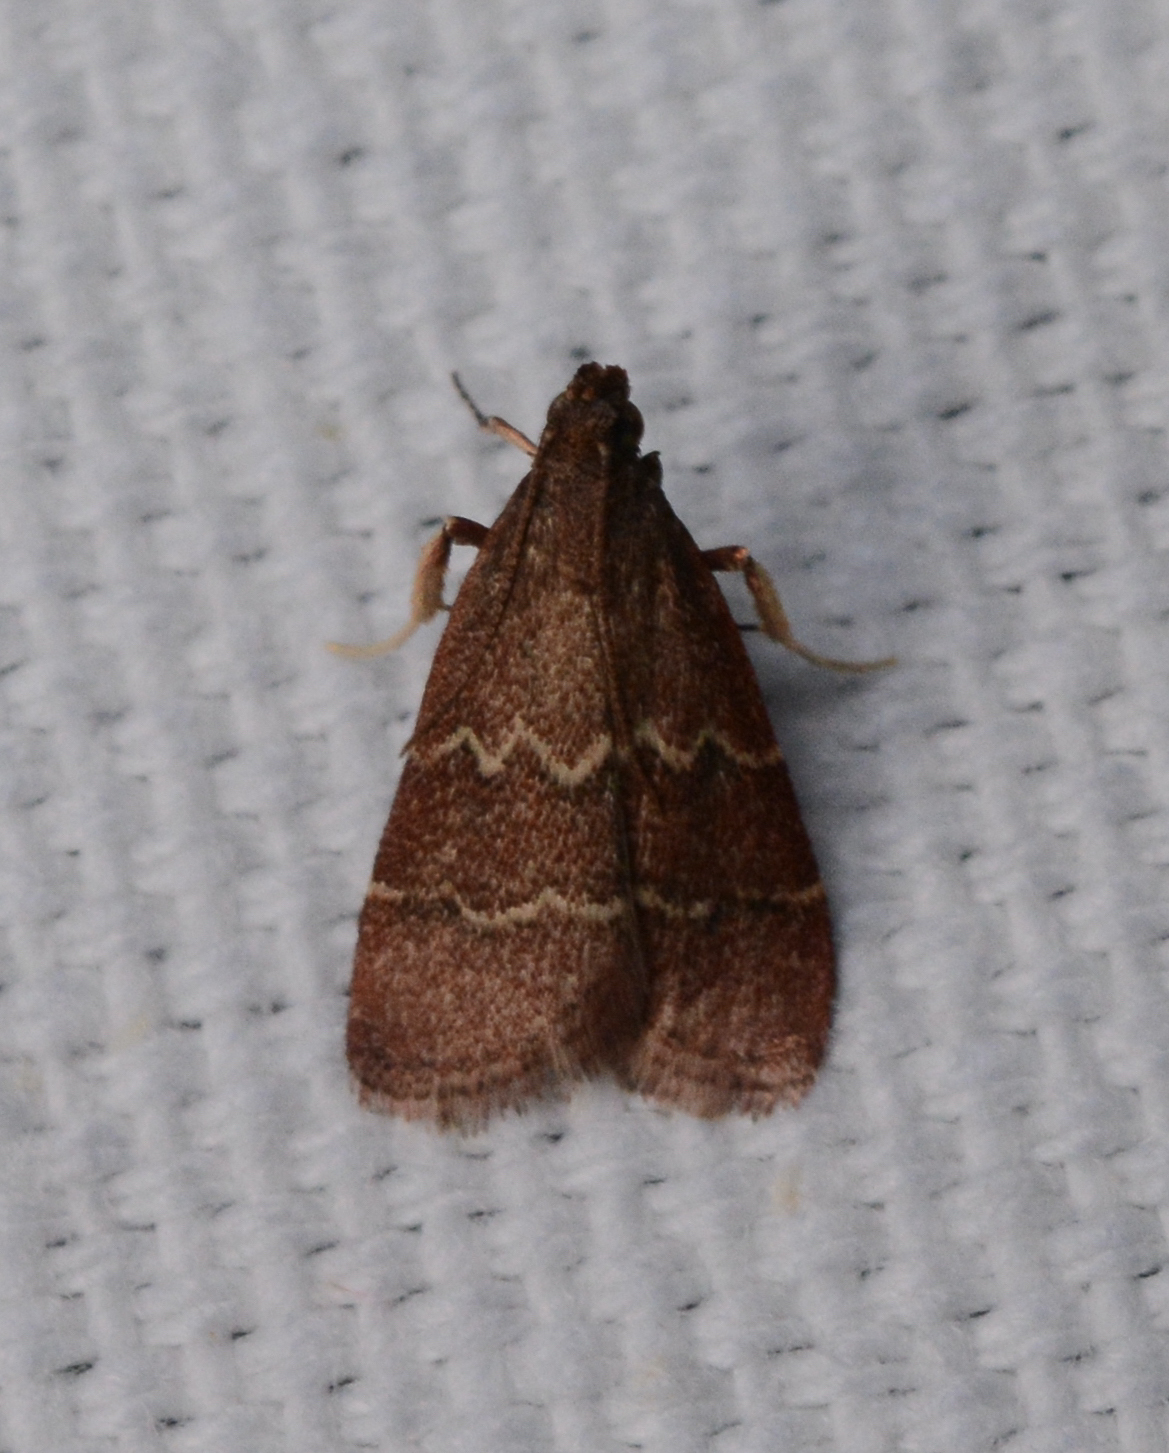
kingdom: Animalia
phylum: Arthropoda
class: Insecta
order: Lepidoptera
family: Pyralidae
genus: Arta
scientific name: Arta
